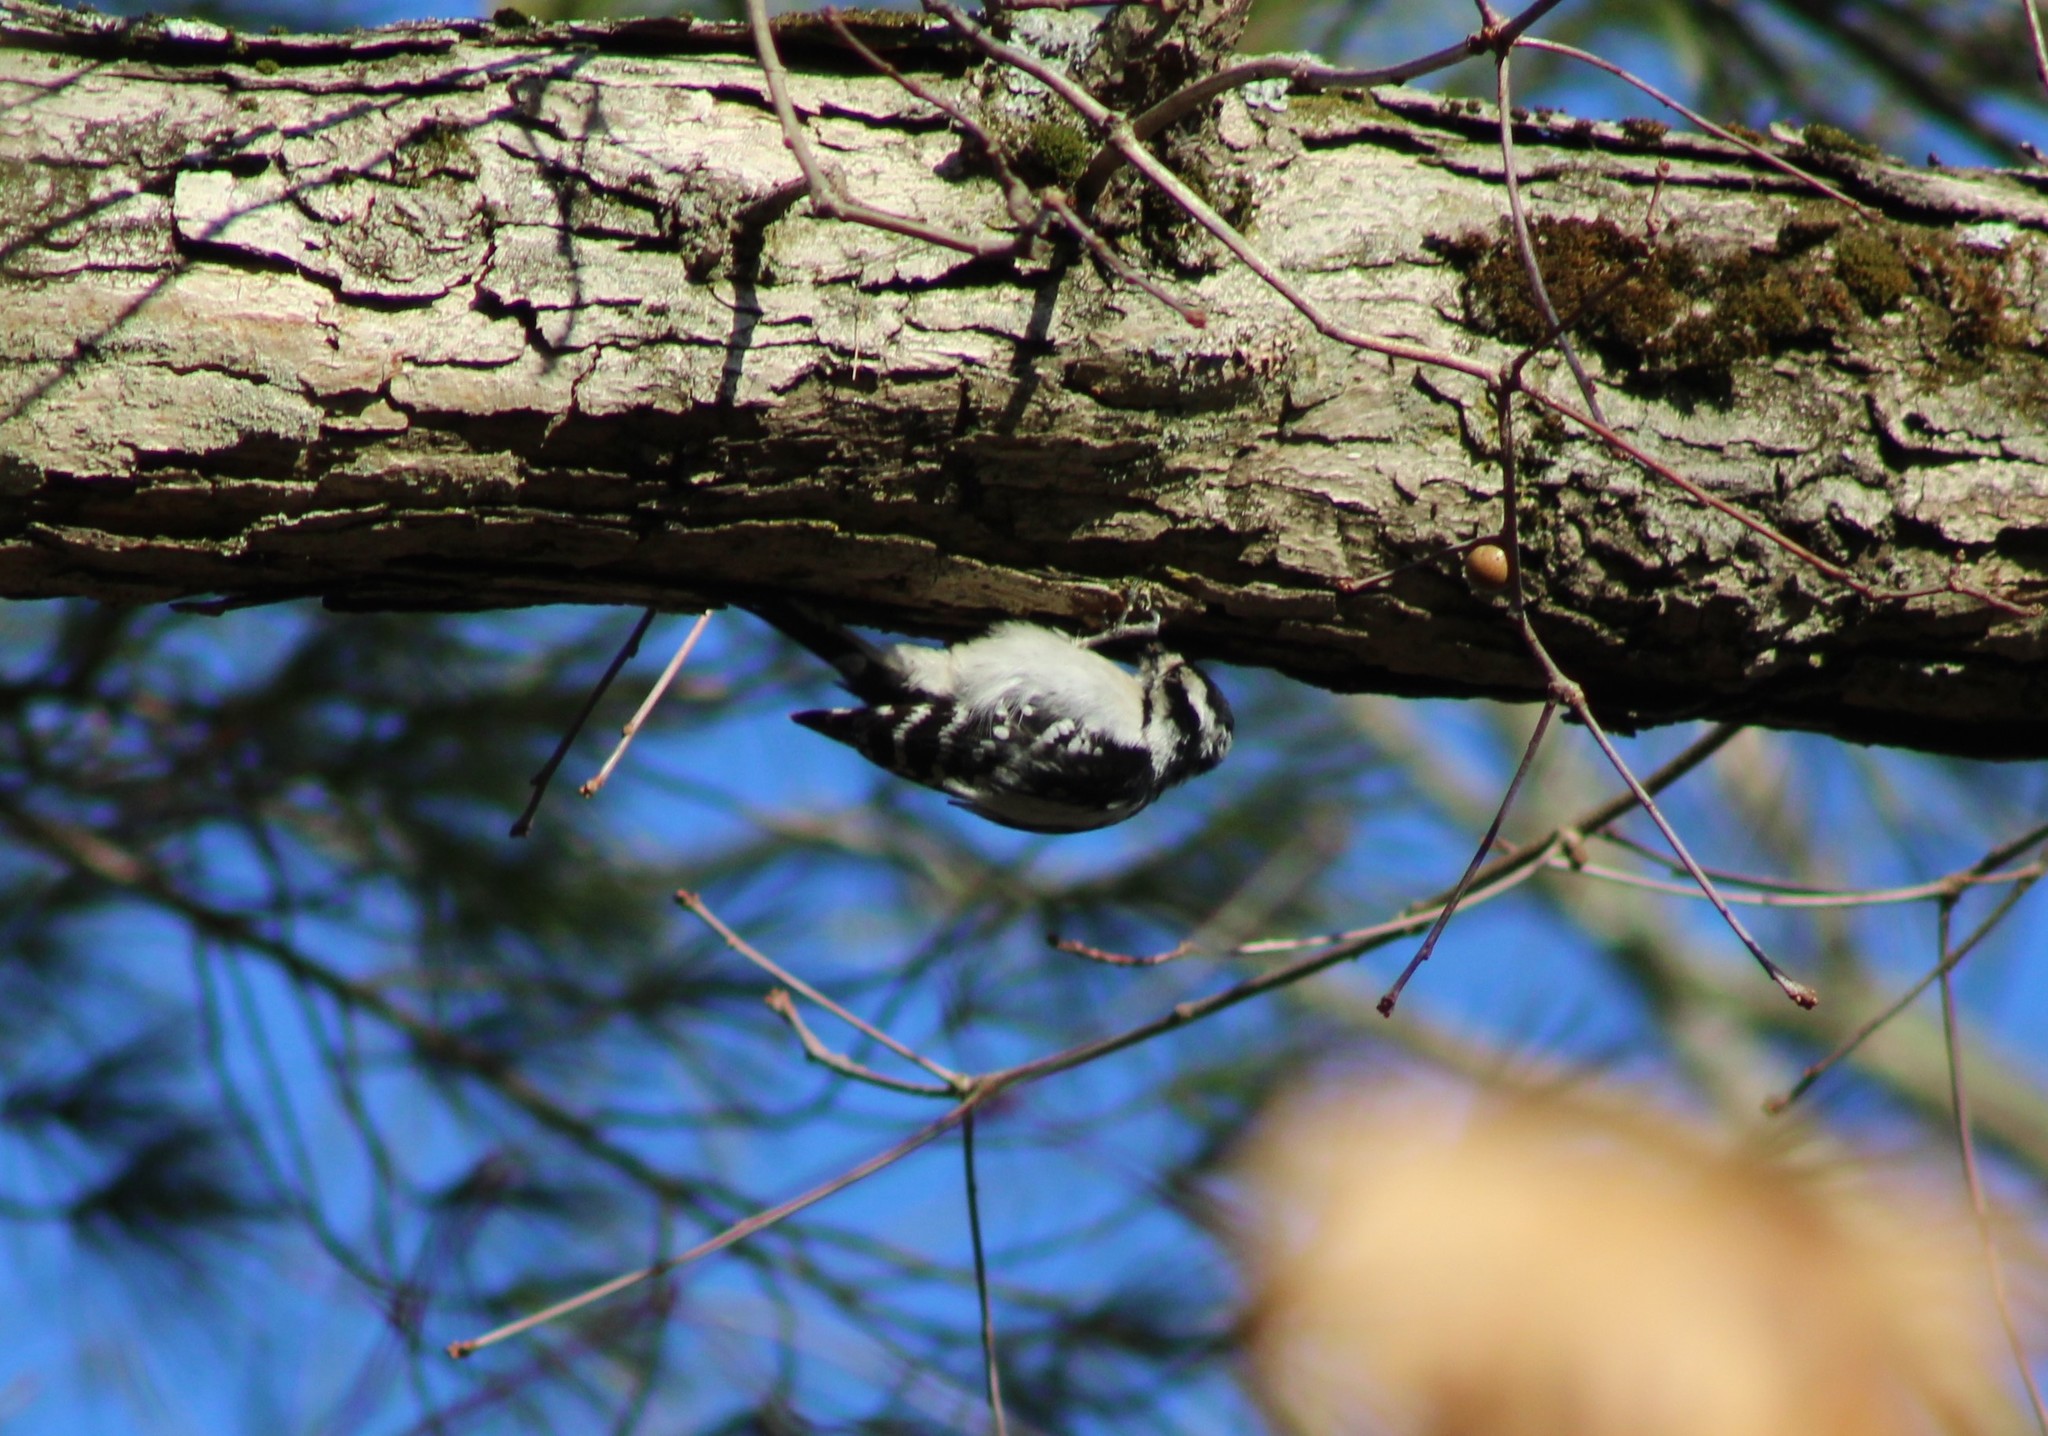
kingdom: Animalia
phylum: Chordata
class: Aves
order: Piciformes
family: Picidae
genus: Dryobates
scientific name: Dryobates pubescens
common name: Downy woodpecker
